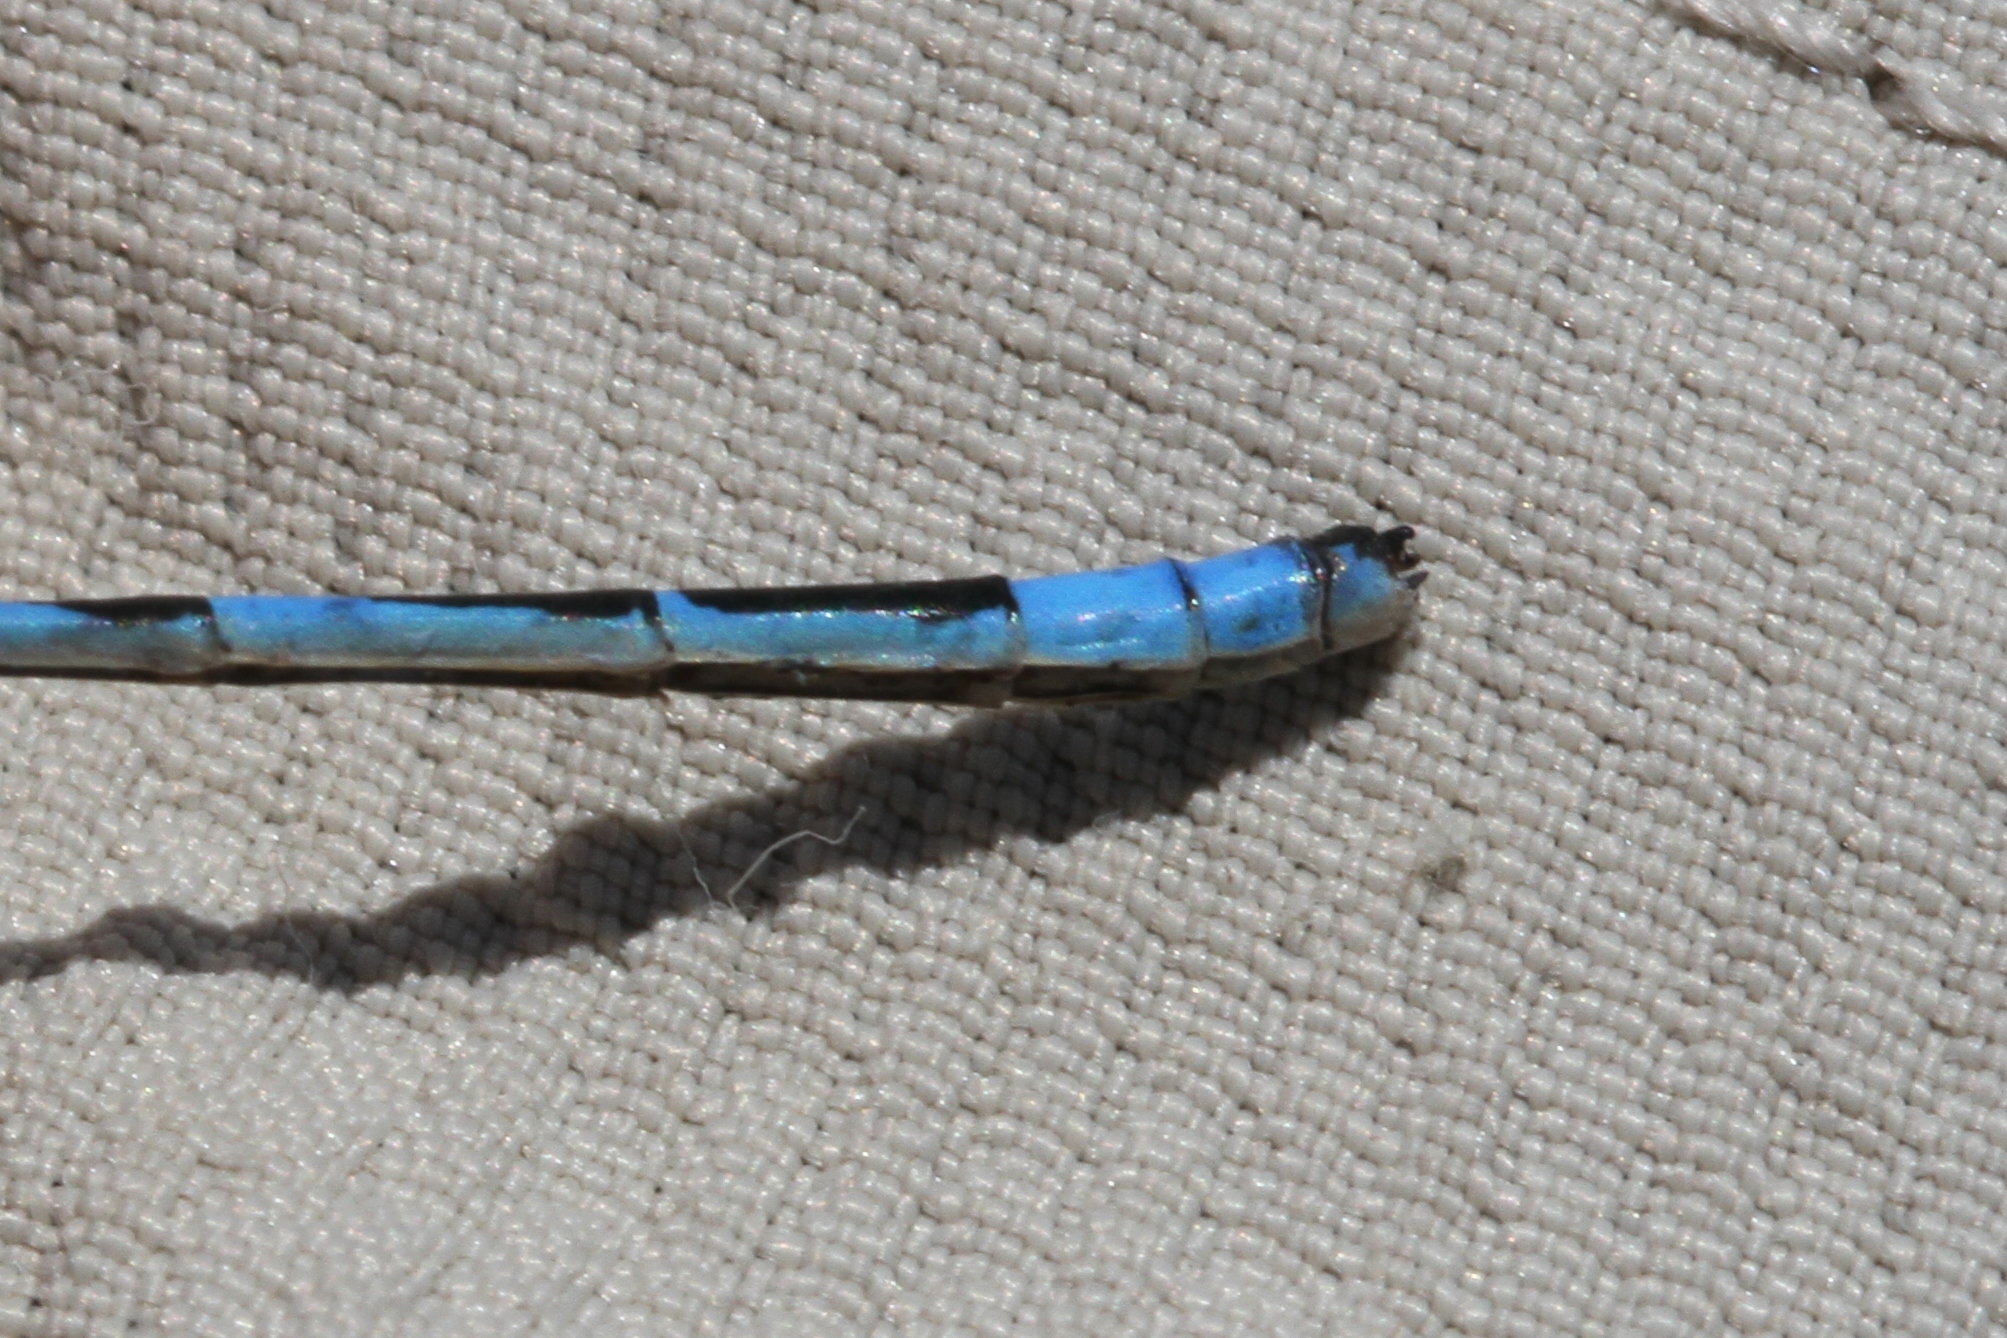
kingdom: Animalia
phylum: Arthropoda
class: Insecta
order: Odonata
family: Coenagrionidae
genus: Enallagma
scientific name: Enallagma ebrium
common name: Marsh bluet
